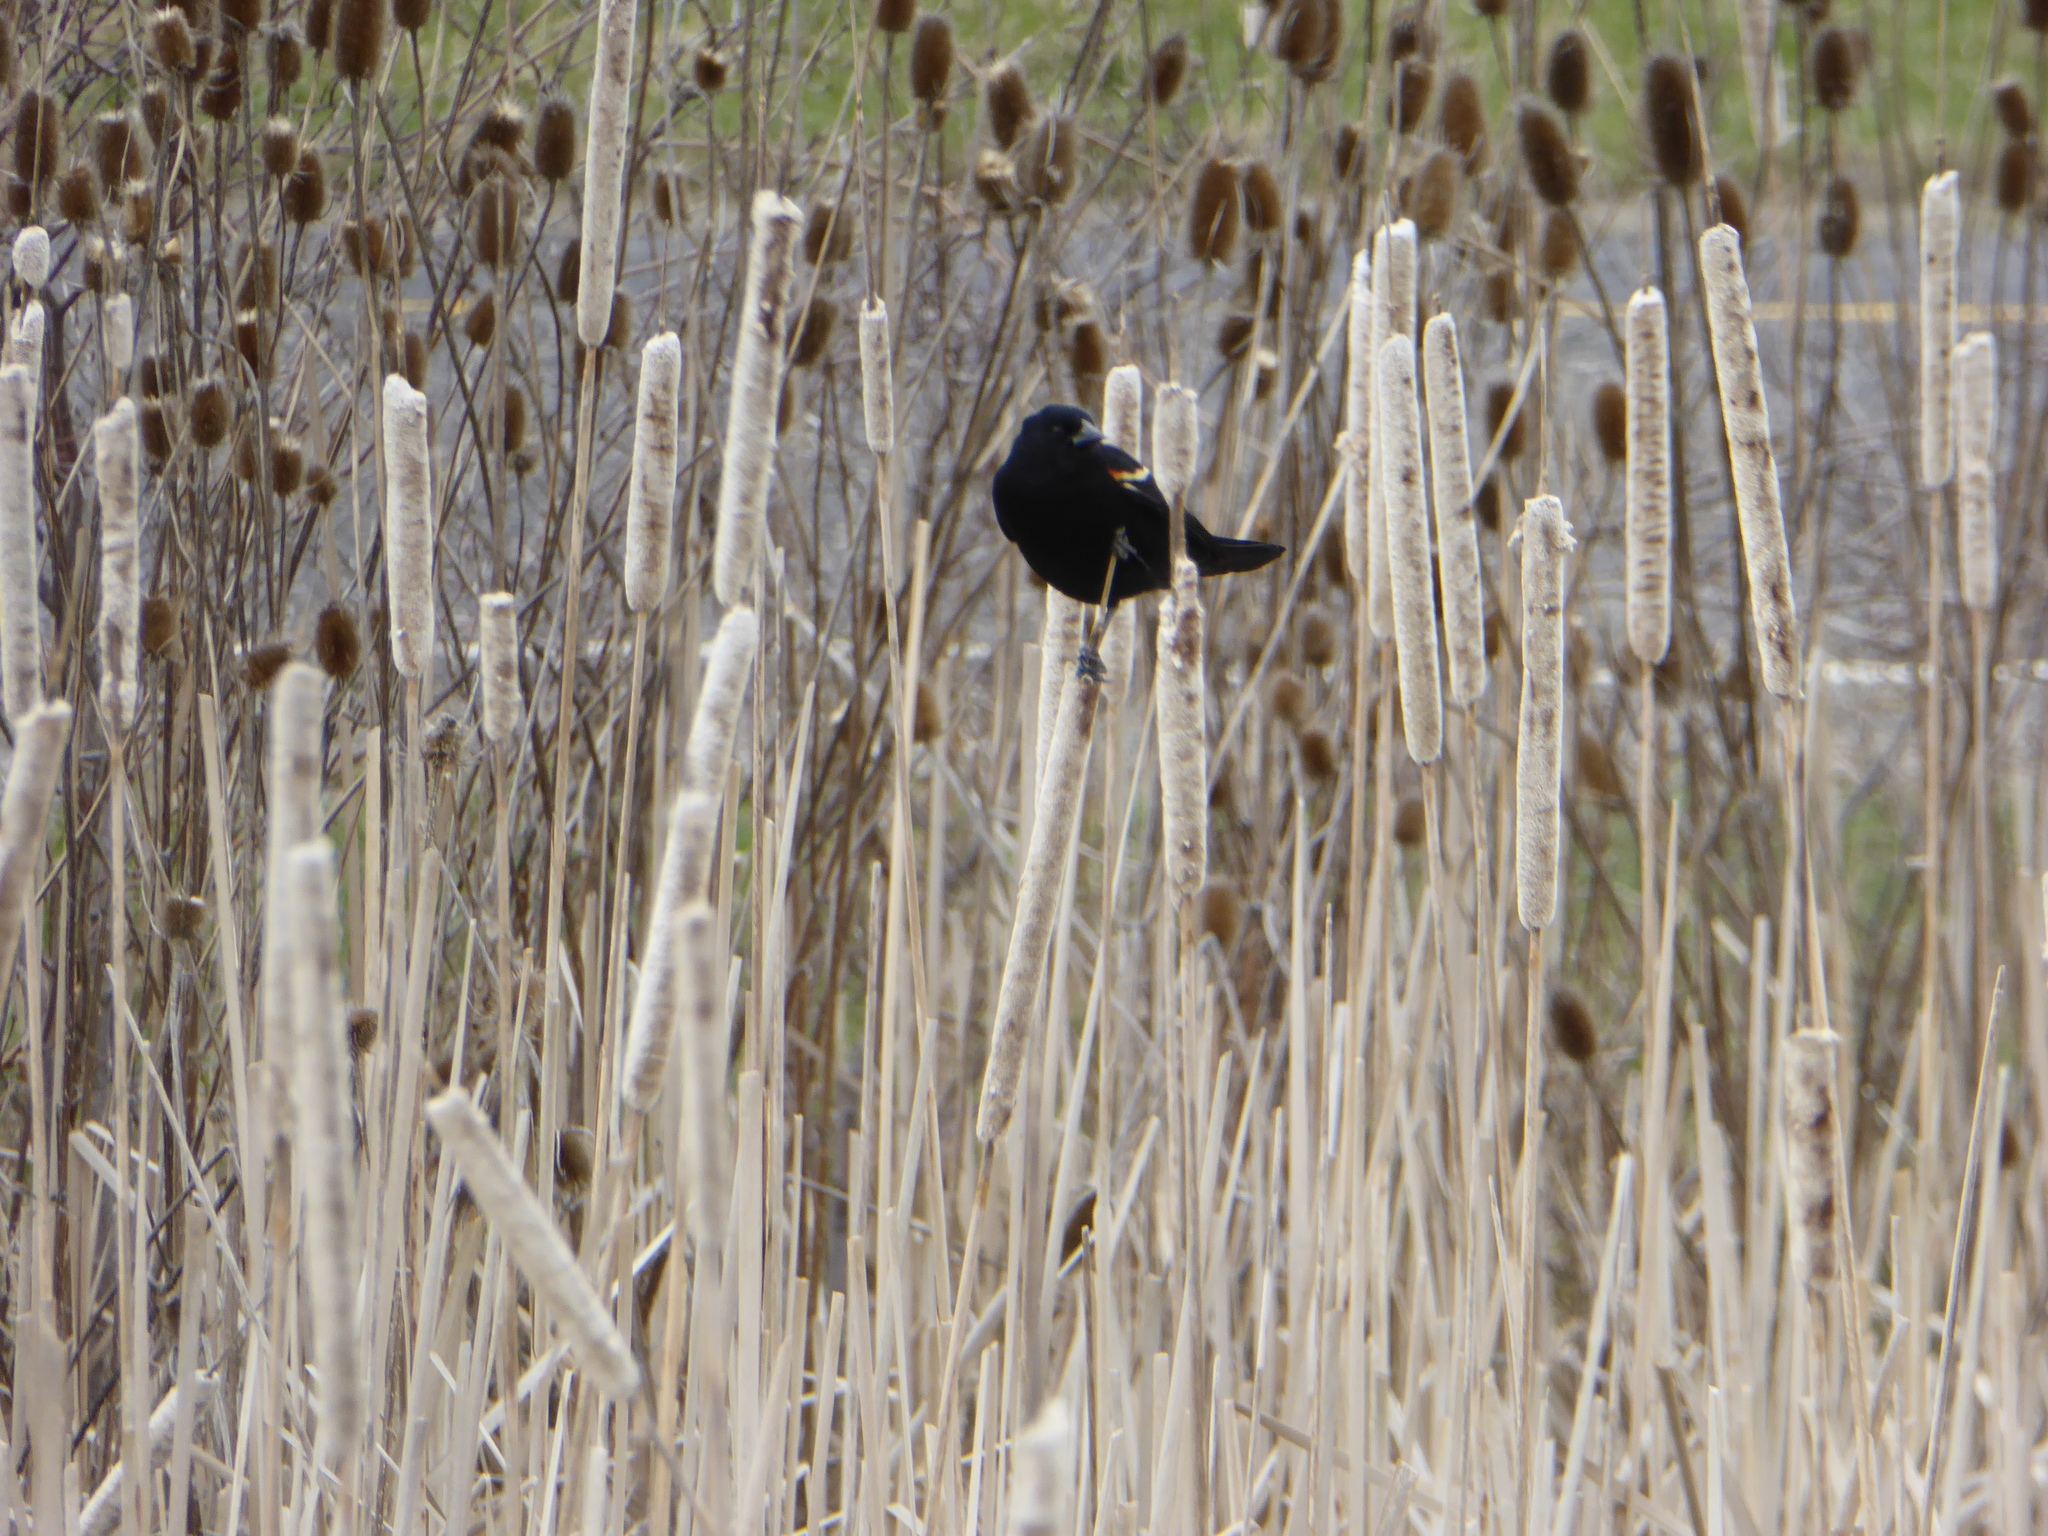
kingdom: Animalia
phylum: Chordata
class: Aves
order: Passeriformes
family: Icteridae
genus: Agelaius
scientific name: Agelaius phoeniceus
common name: Red-winged blackbird
